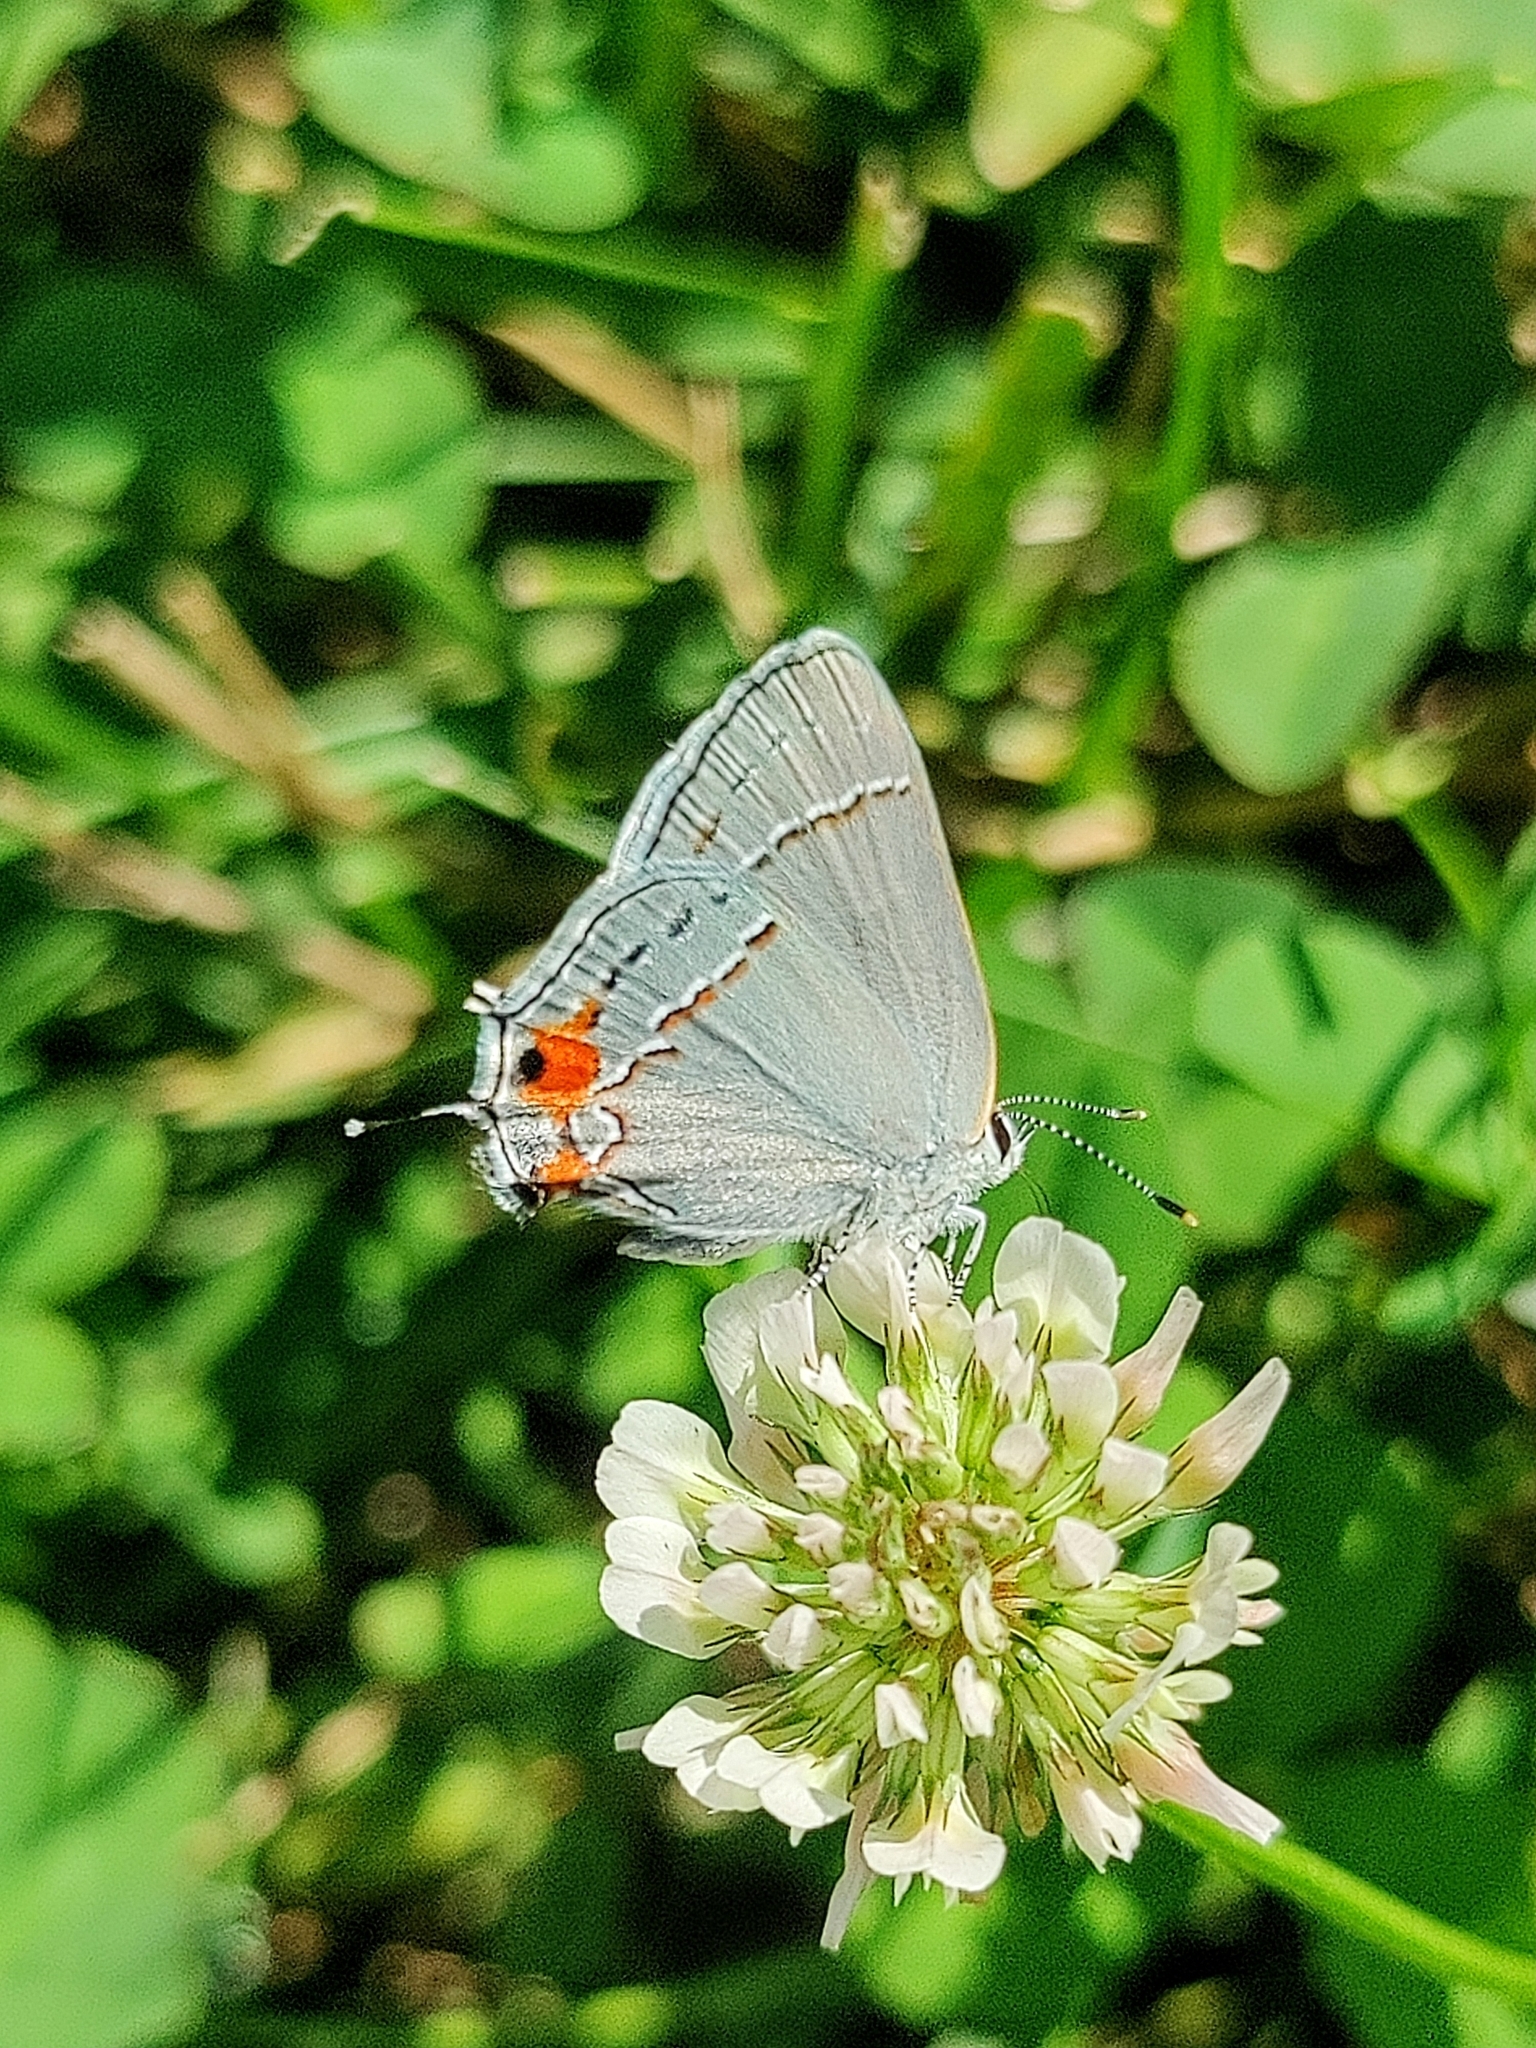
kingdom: Animalia
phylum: Arthropoda
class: Insecta
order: Lepidoptera
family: Lycaenidae
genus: Strymon
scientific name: Strymon melinus
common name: Gray hairstreak
